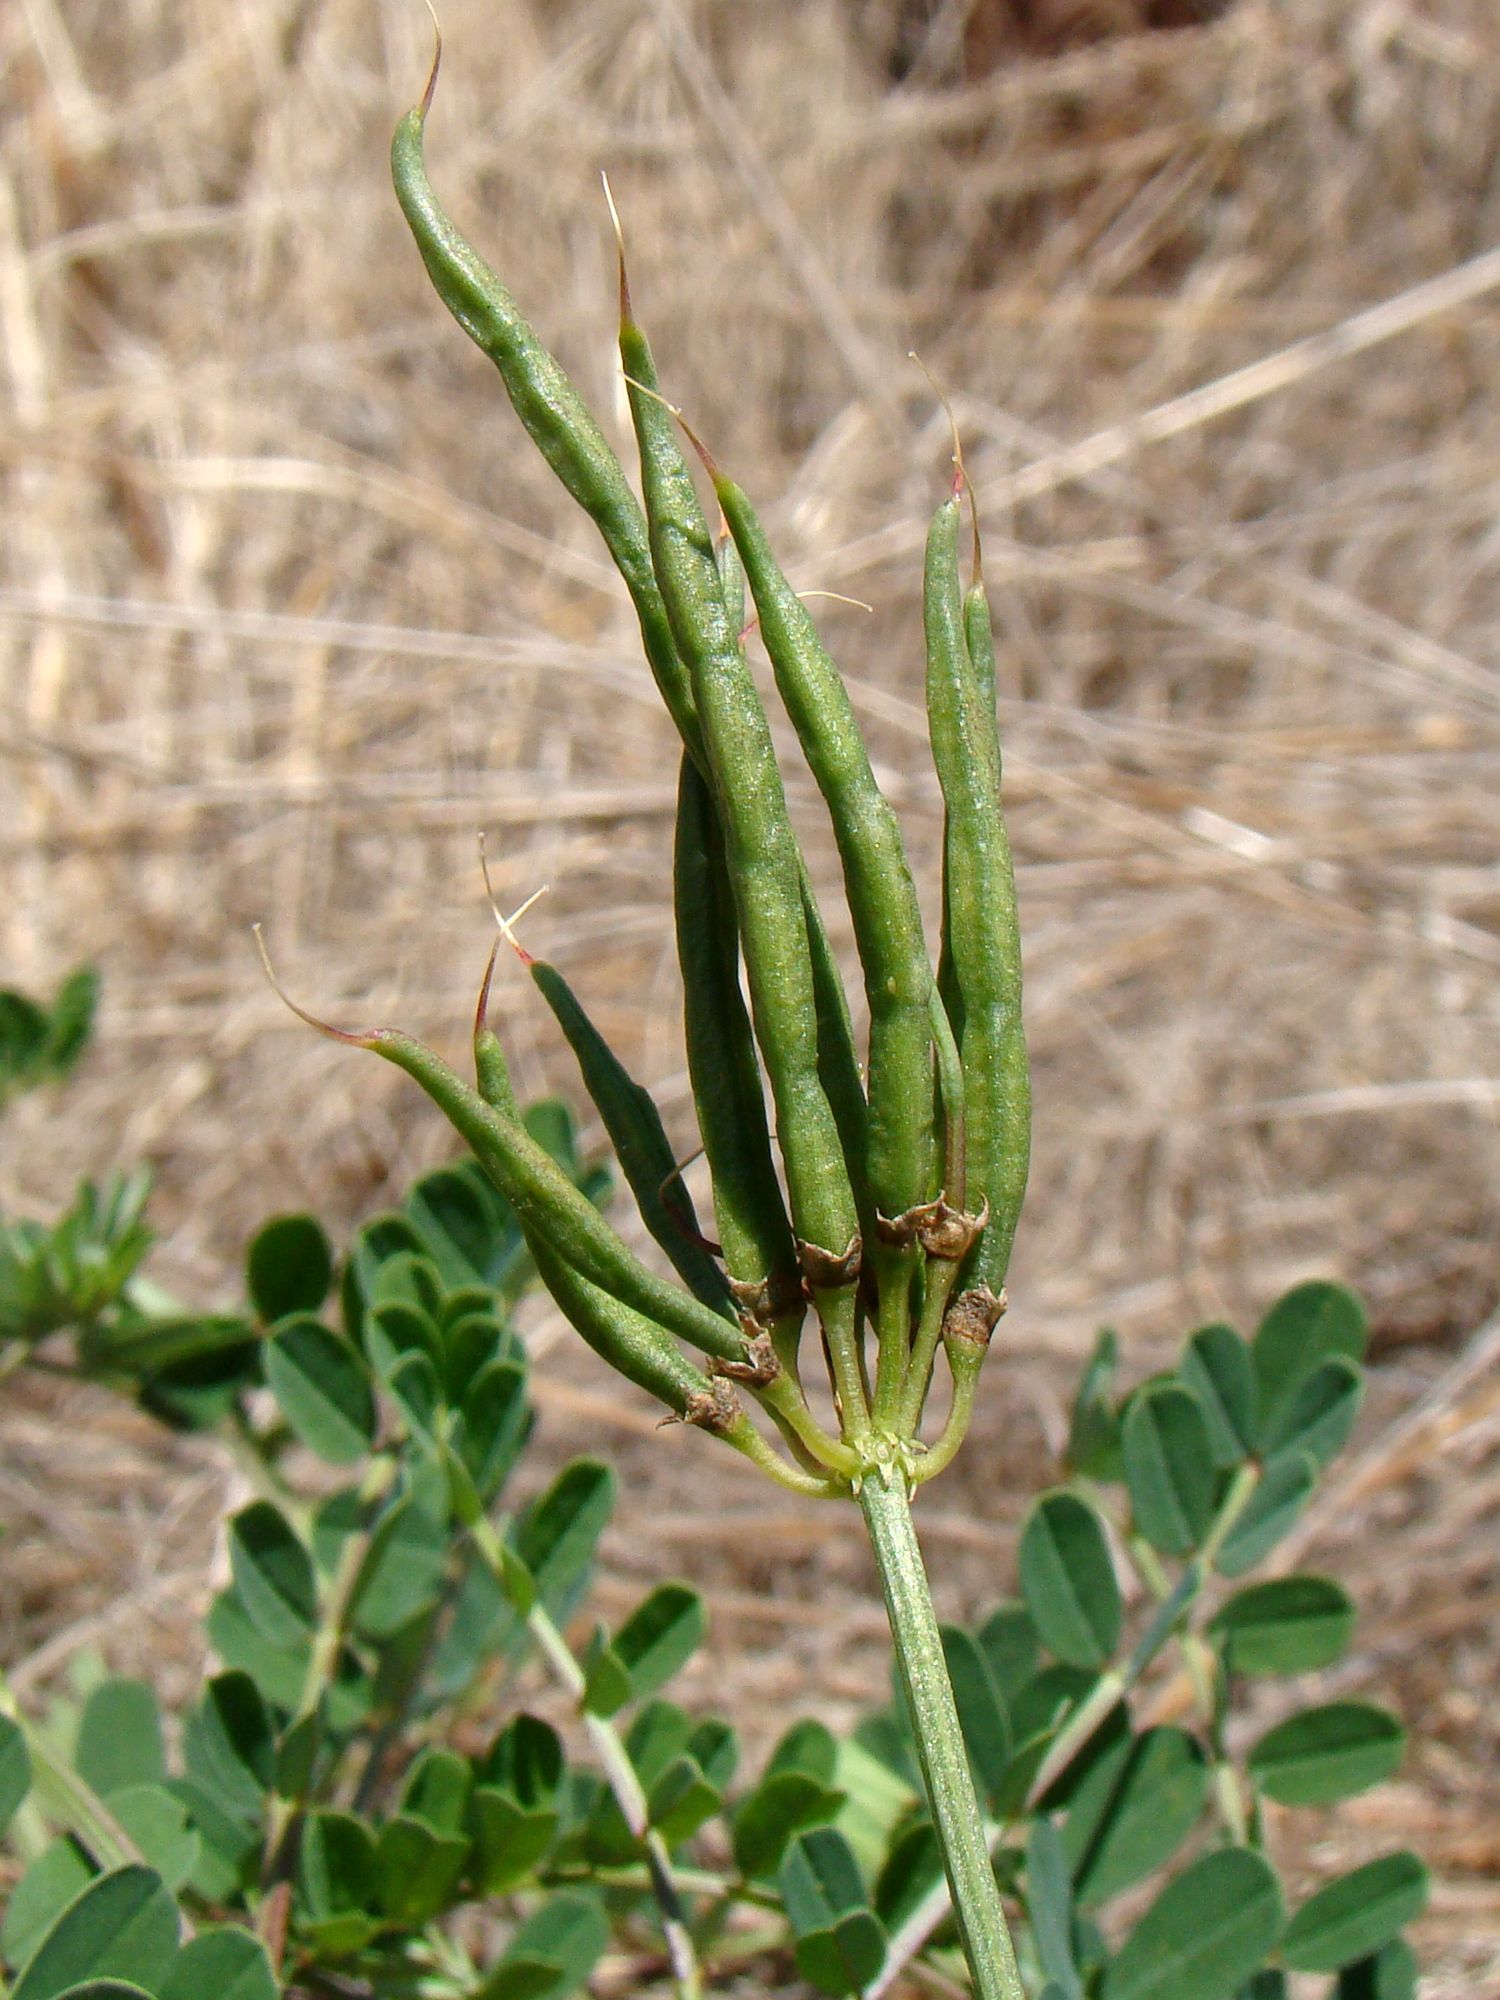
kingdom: Plantae
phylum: Tracheophyta
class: Magnoliopsida
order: Fabales
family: Fabaceae
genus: Coronilla
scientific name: Coronilla varia
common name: Crownvetch
